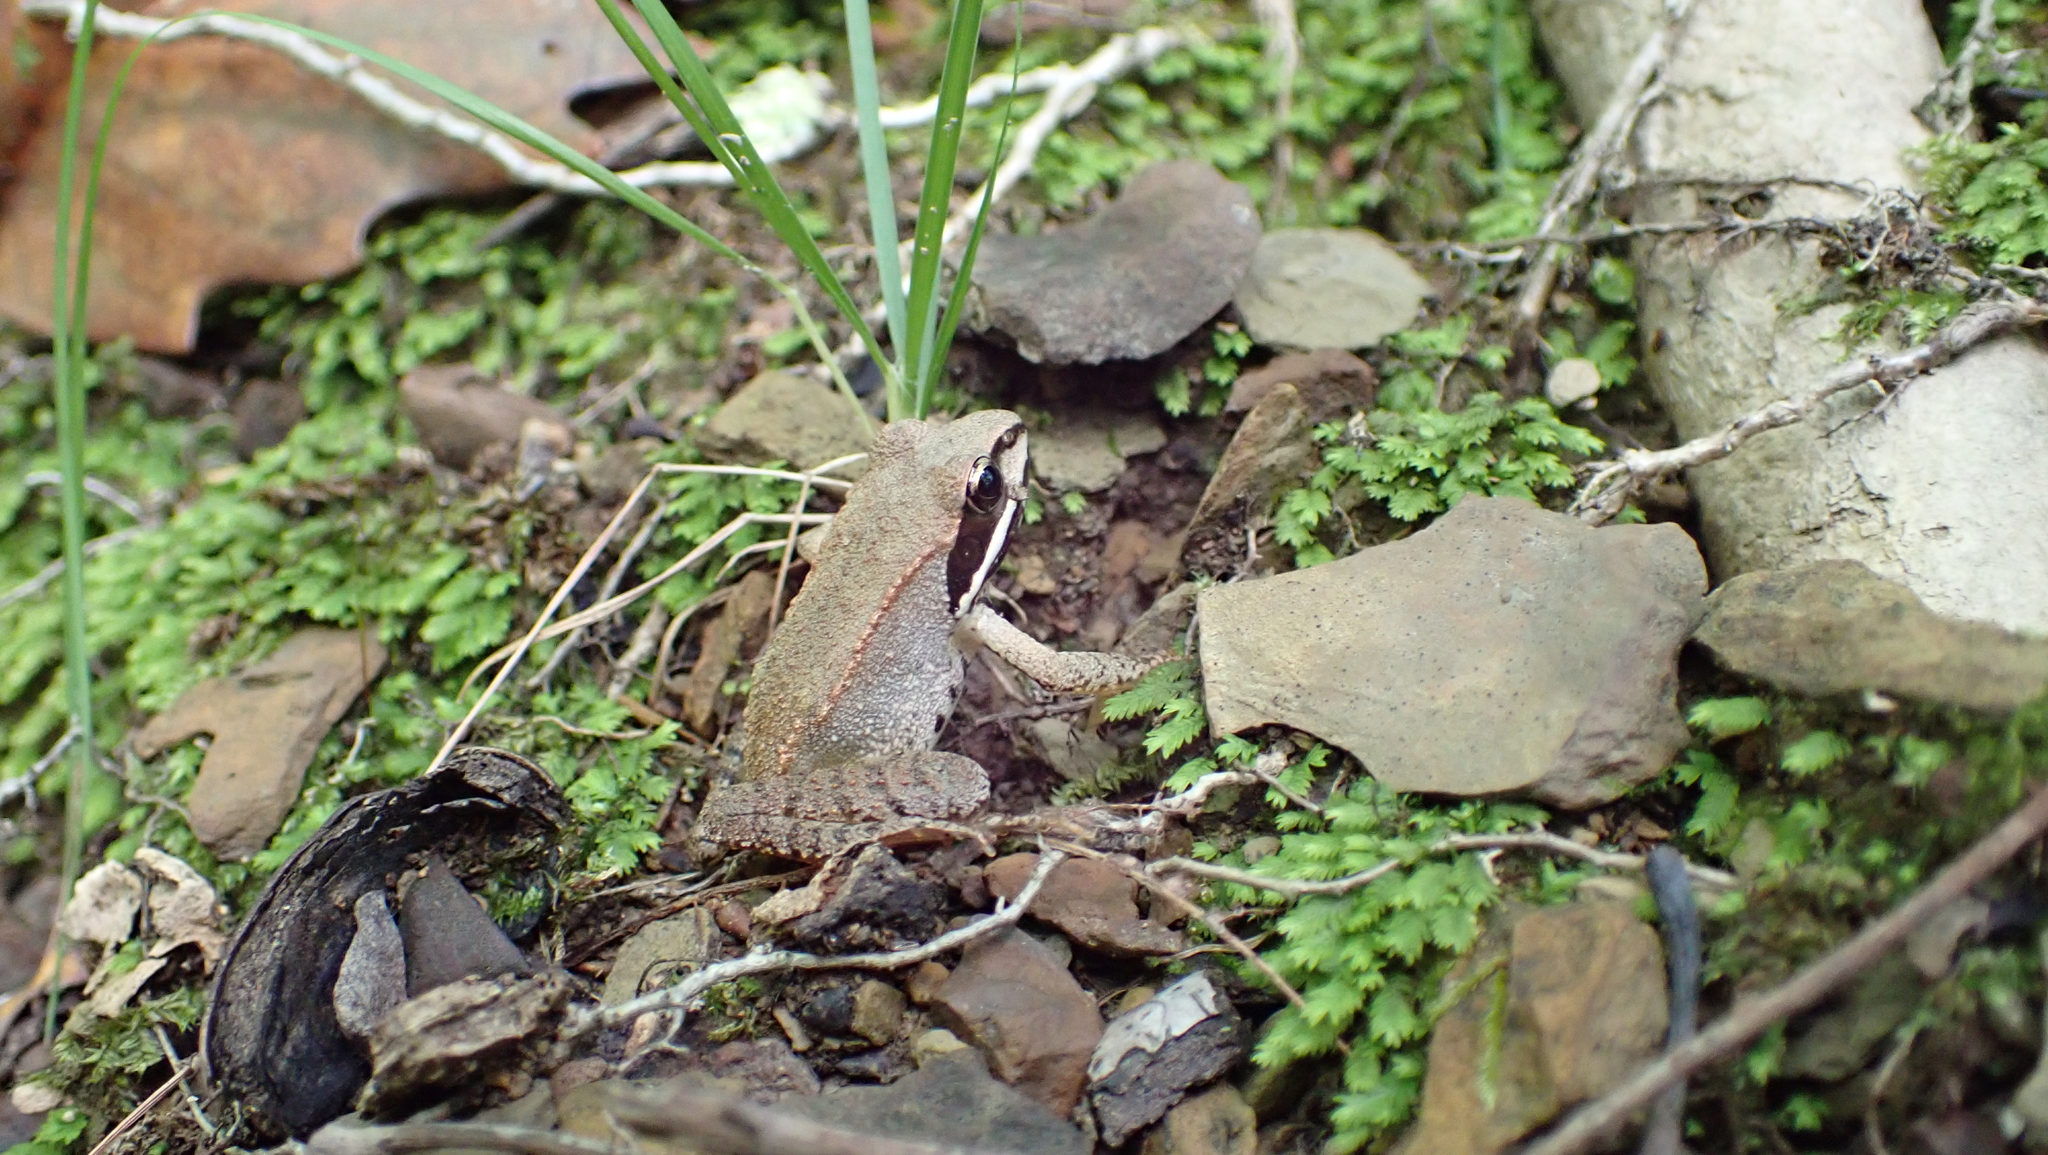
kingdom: Animalia
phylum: Chordata
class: Amphibia
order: Anura
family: Ranidae
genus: Lithobates
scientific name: Lithobates sylvaticus
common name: Wood frog
